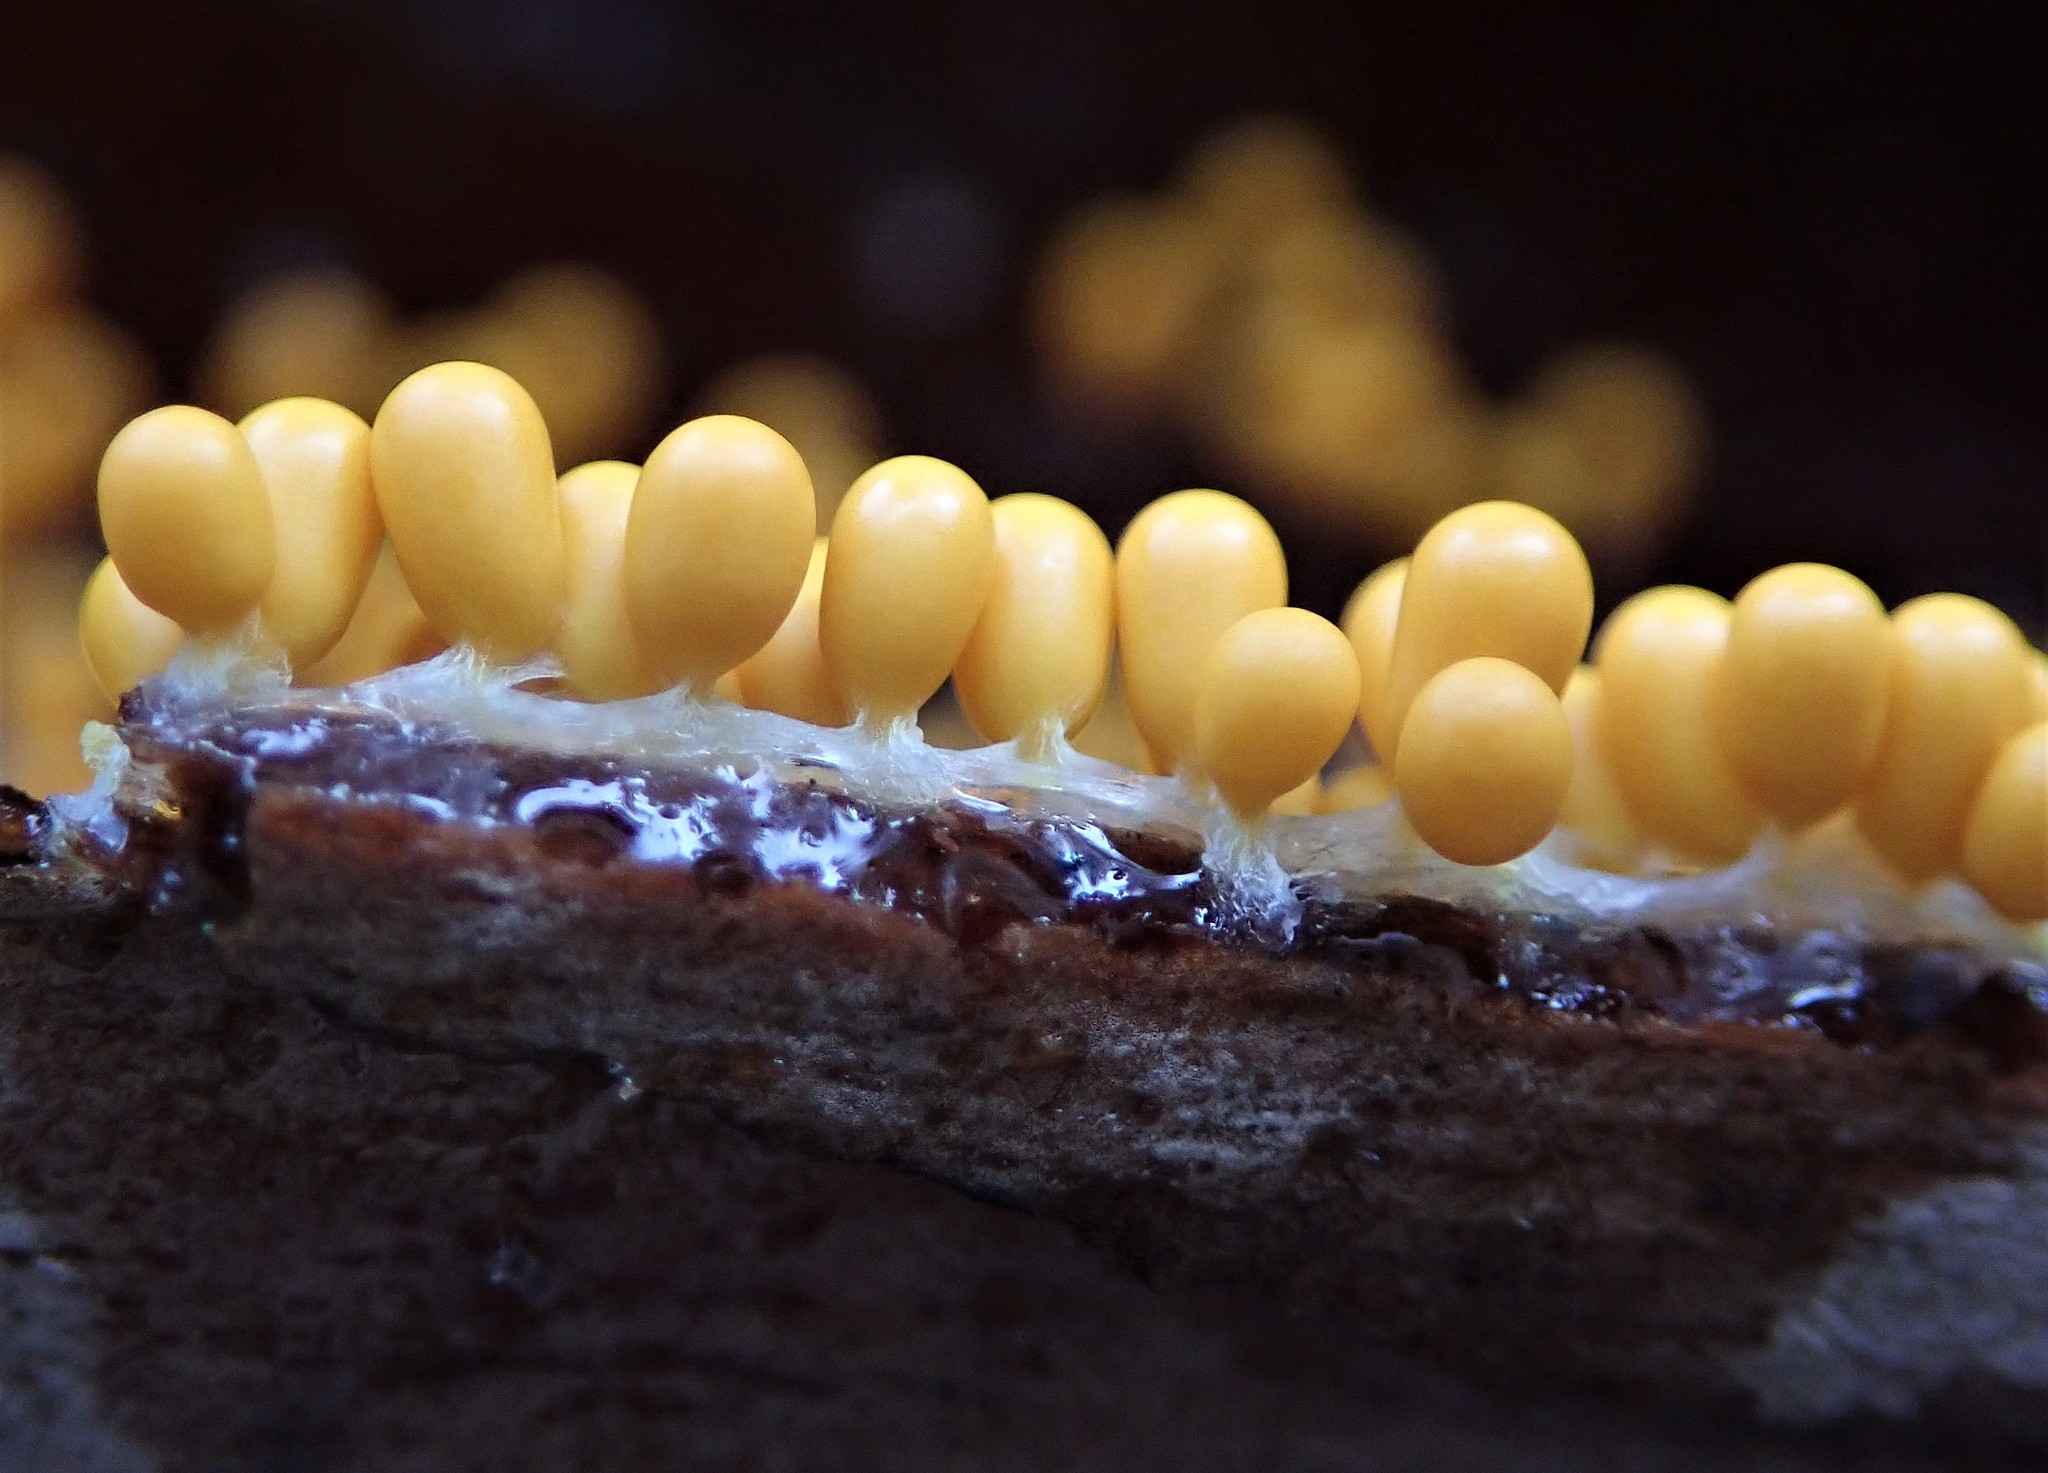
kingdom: Protozoa
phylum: Mycetozoa
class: Myxomycetes
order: Physarales
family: Physaraceae
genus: Leocarpus
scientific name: Leocarpus fragilis
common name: Insect-egg slime
